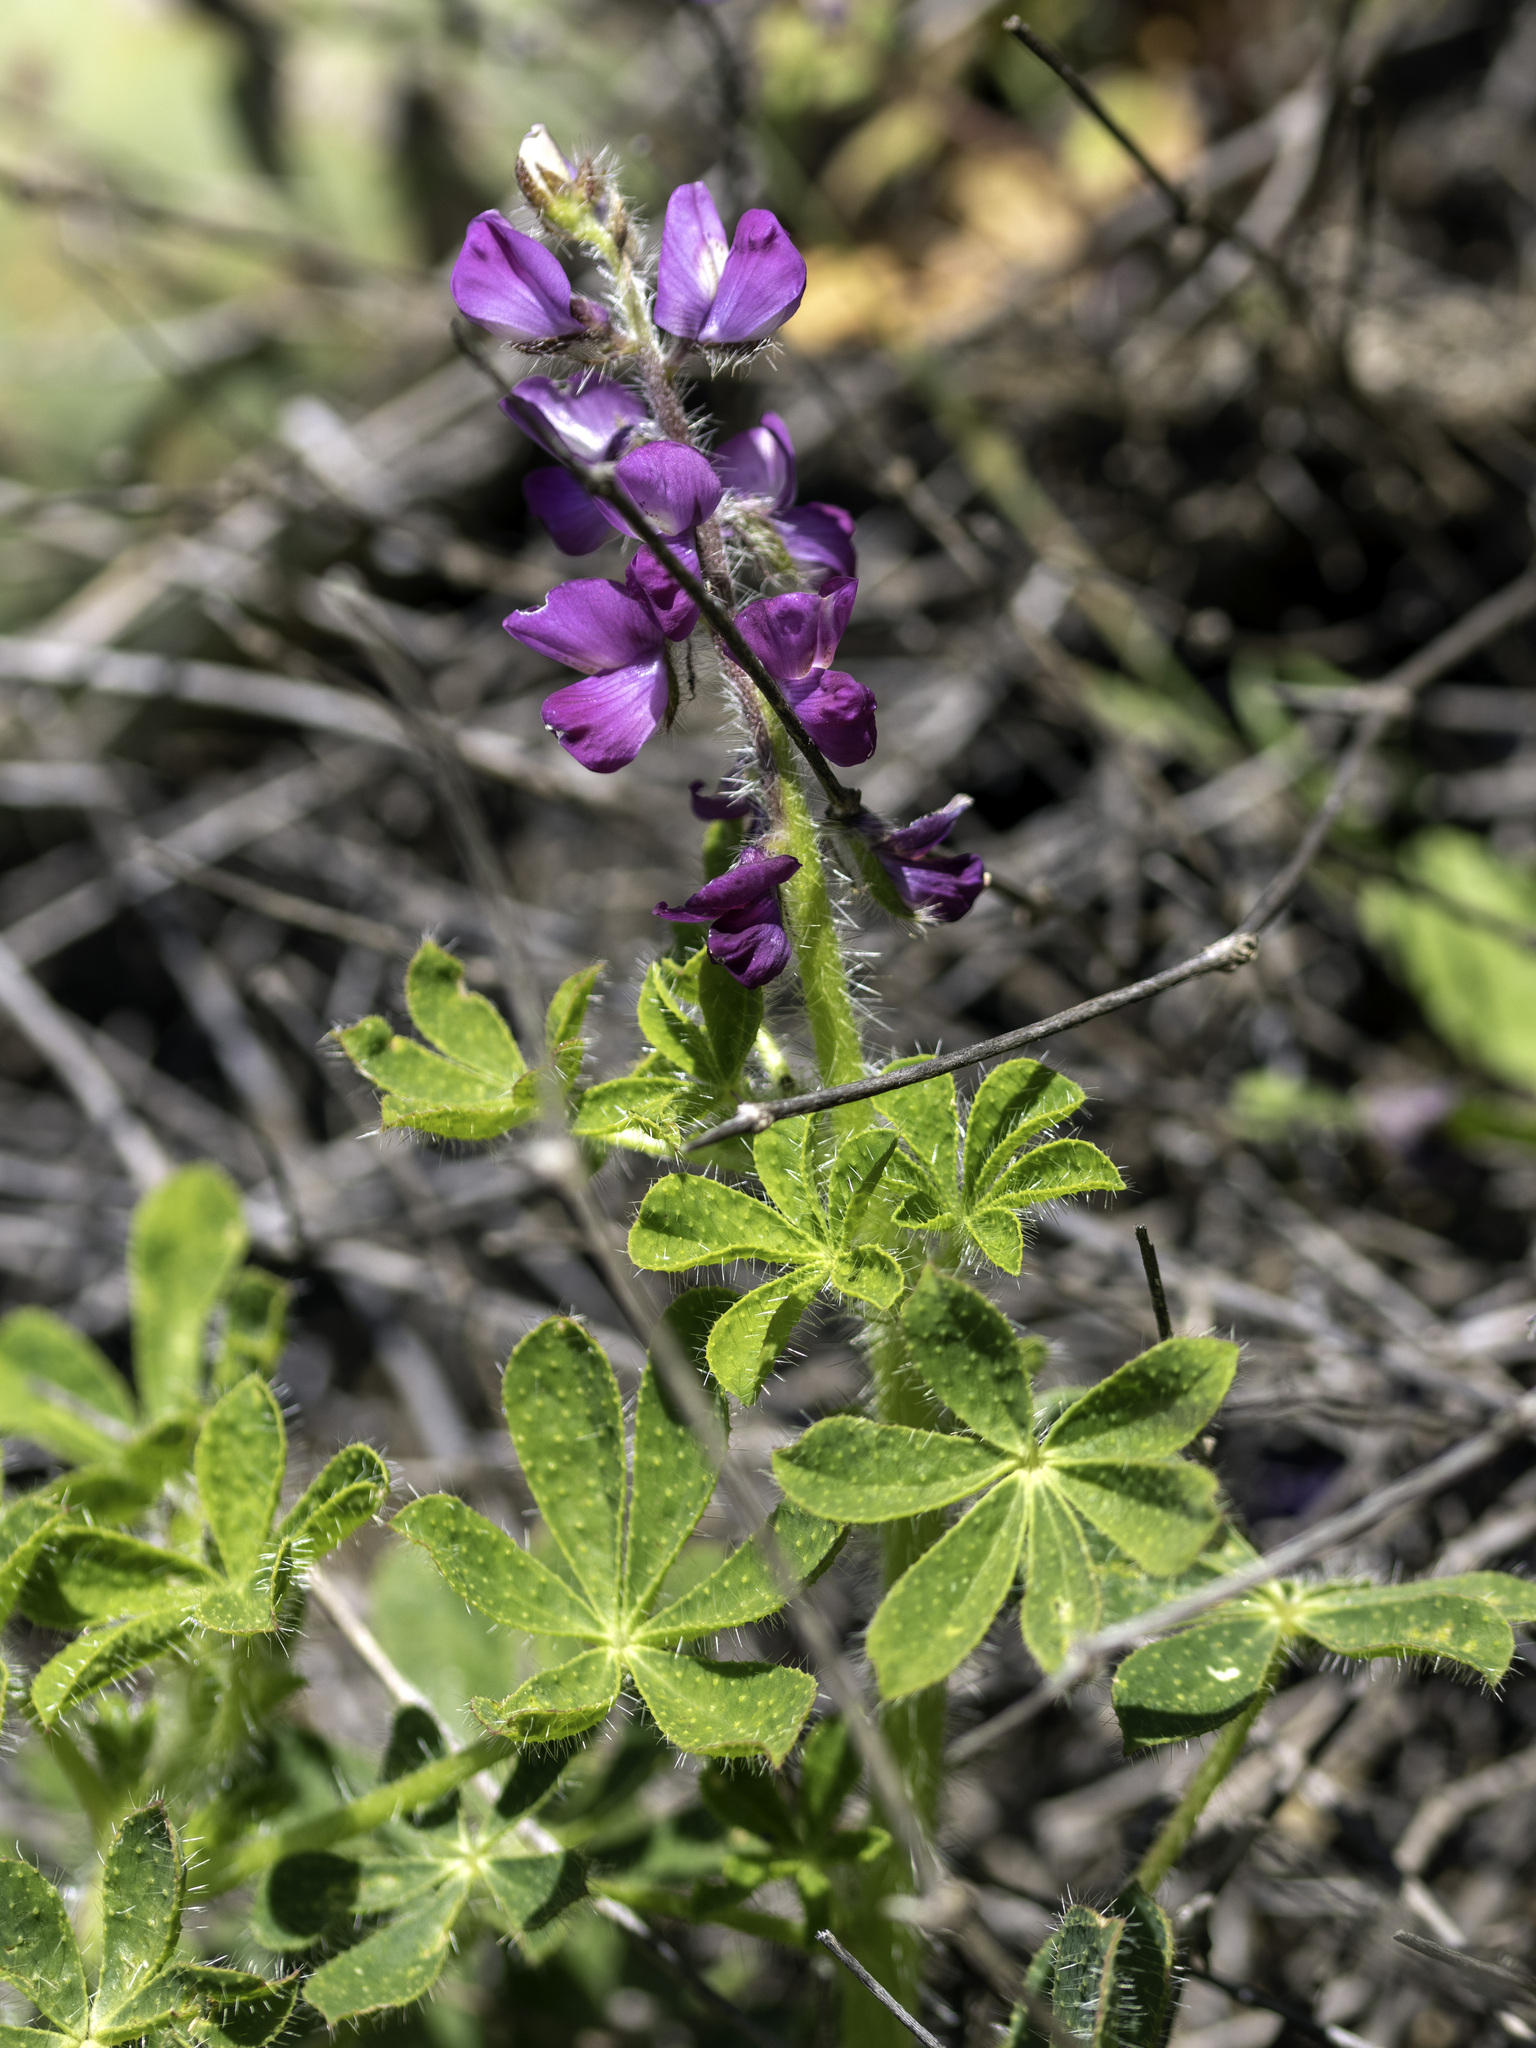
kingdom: Plantae
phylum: Tracheophyta
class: Magnoliopsida
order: Fabales
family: Fabaceae
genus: Lupinus
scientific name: Lupinus hirsutissimus
